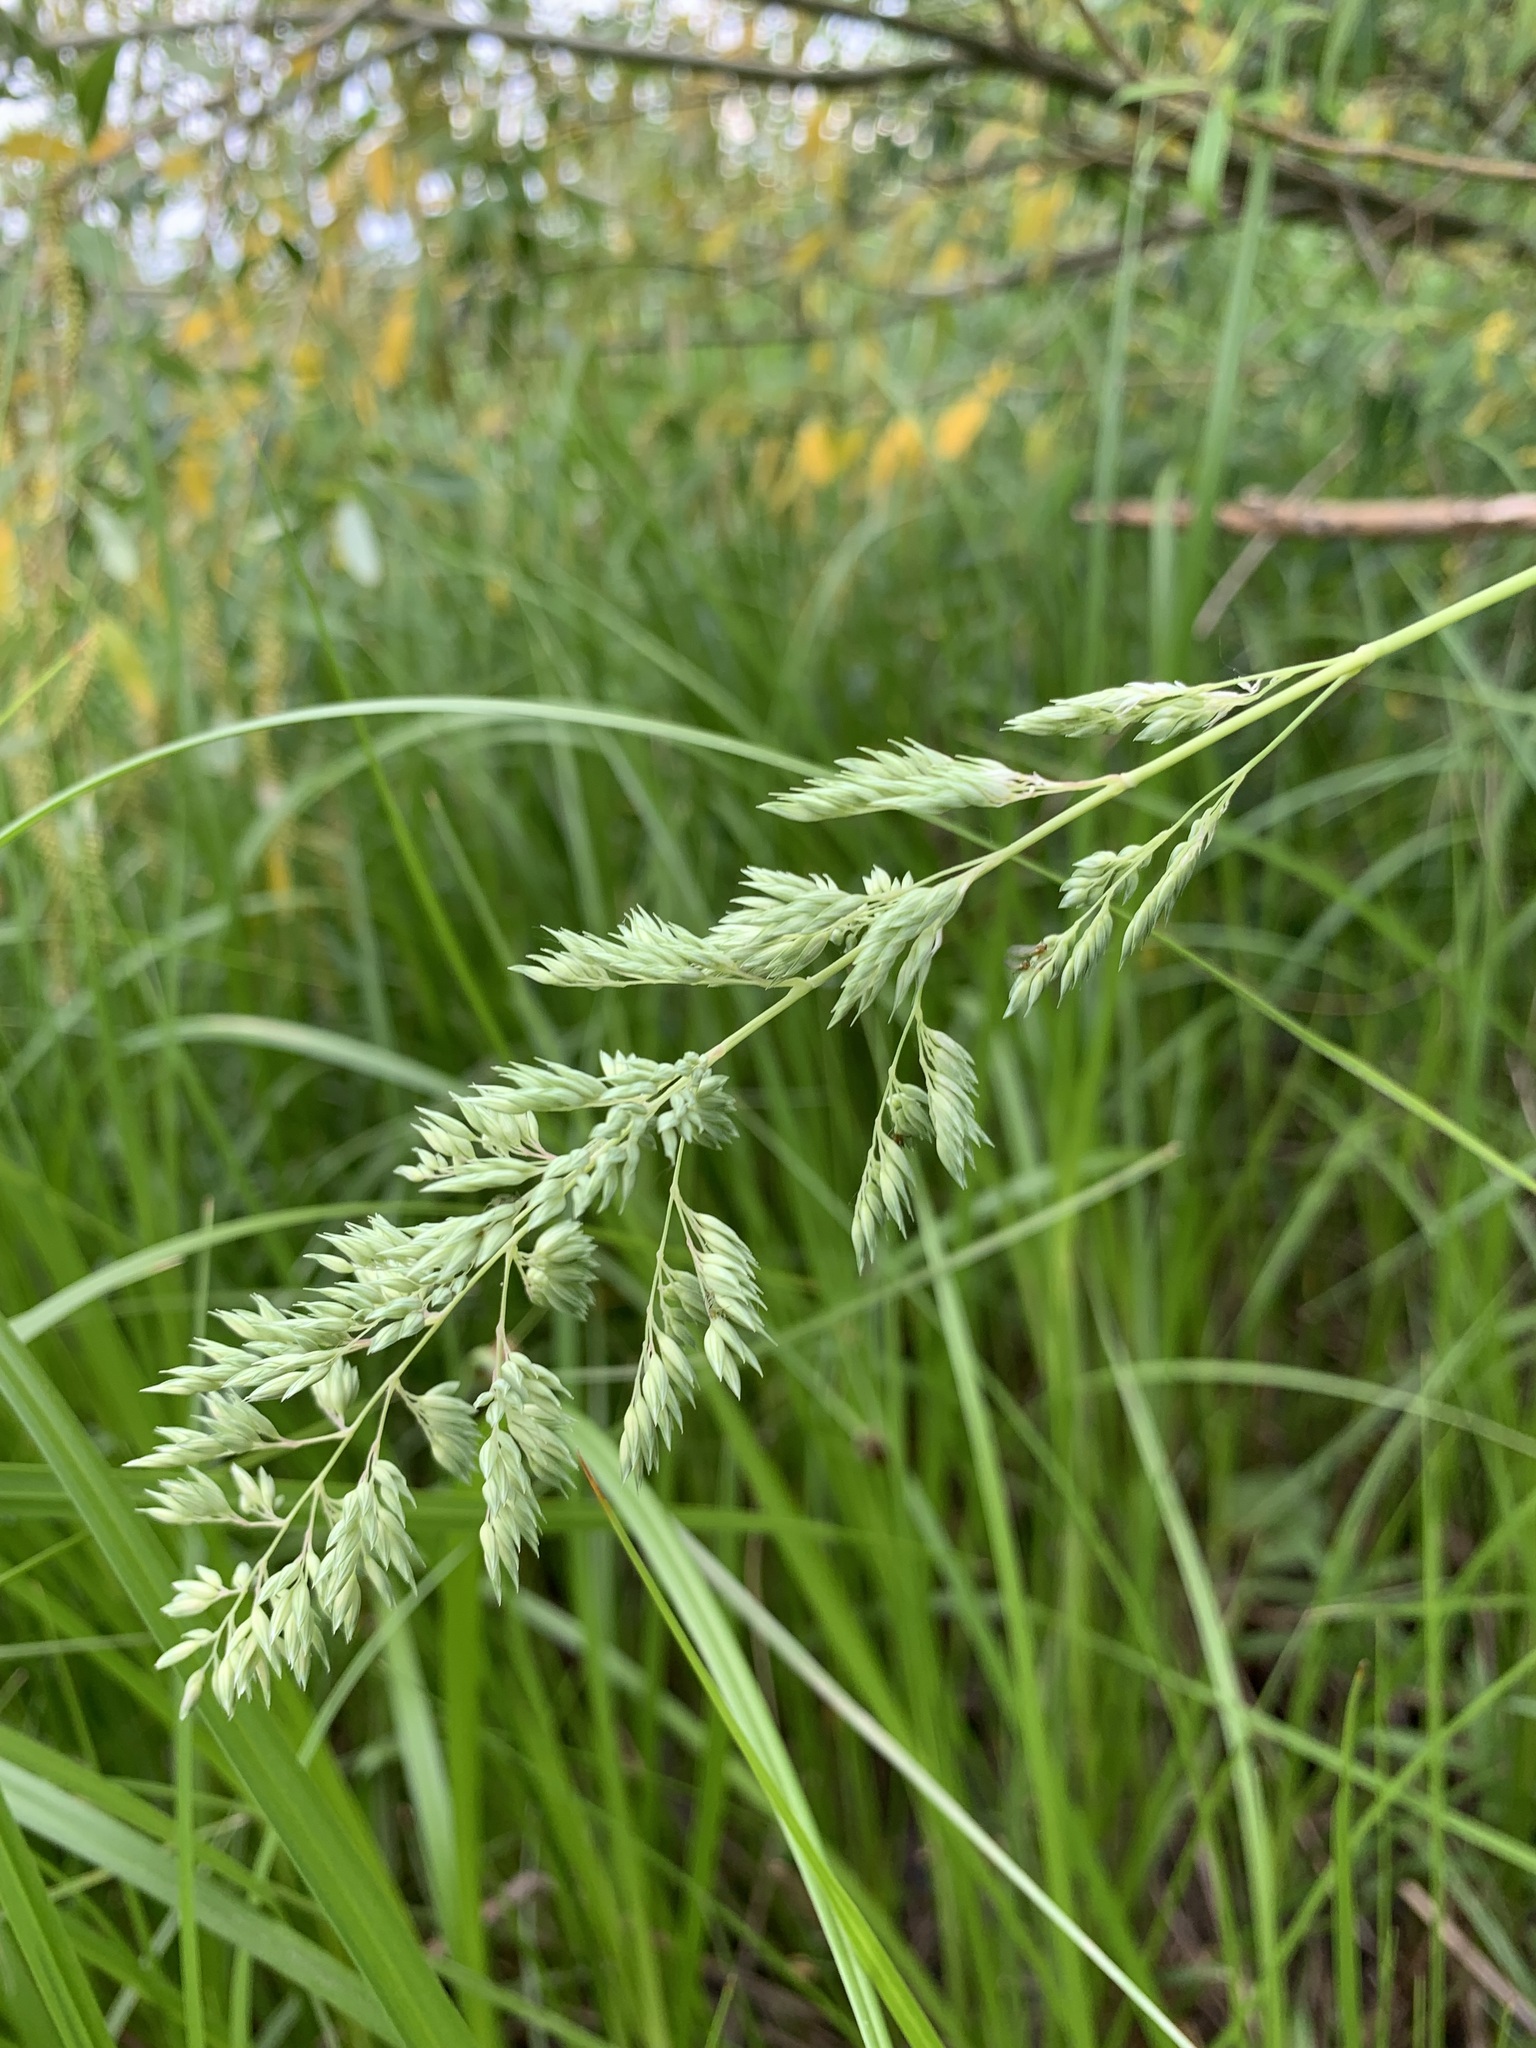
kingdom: Plantae
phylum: Tracheophyta
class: Liliopsida
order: Poales
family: Poaceae
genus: Phalaris
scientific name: Phalaris arundinacea
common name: Reed canary-grass
